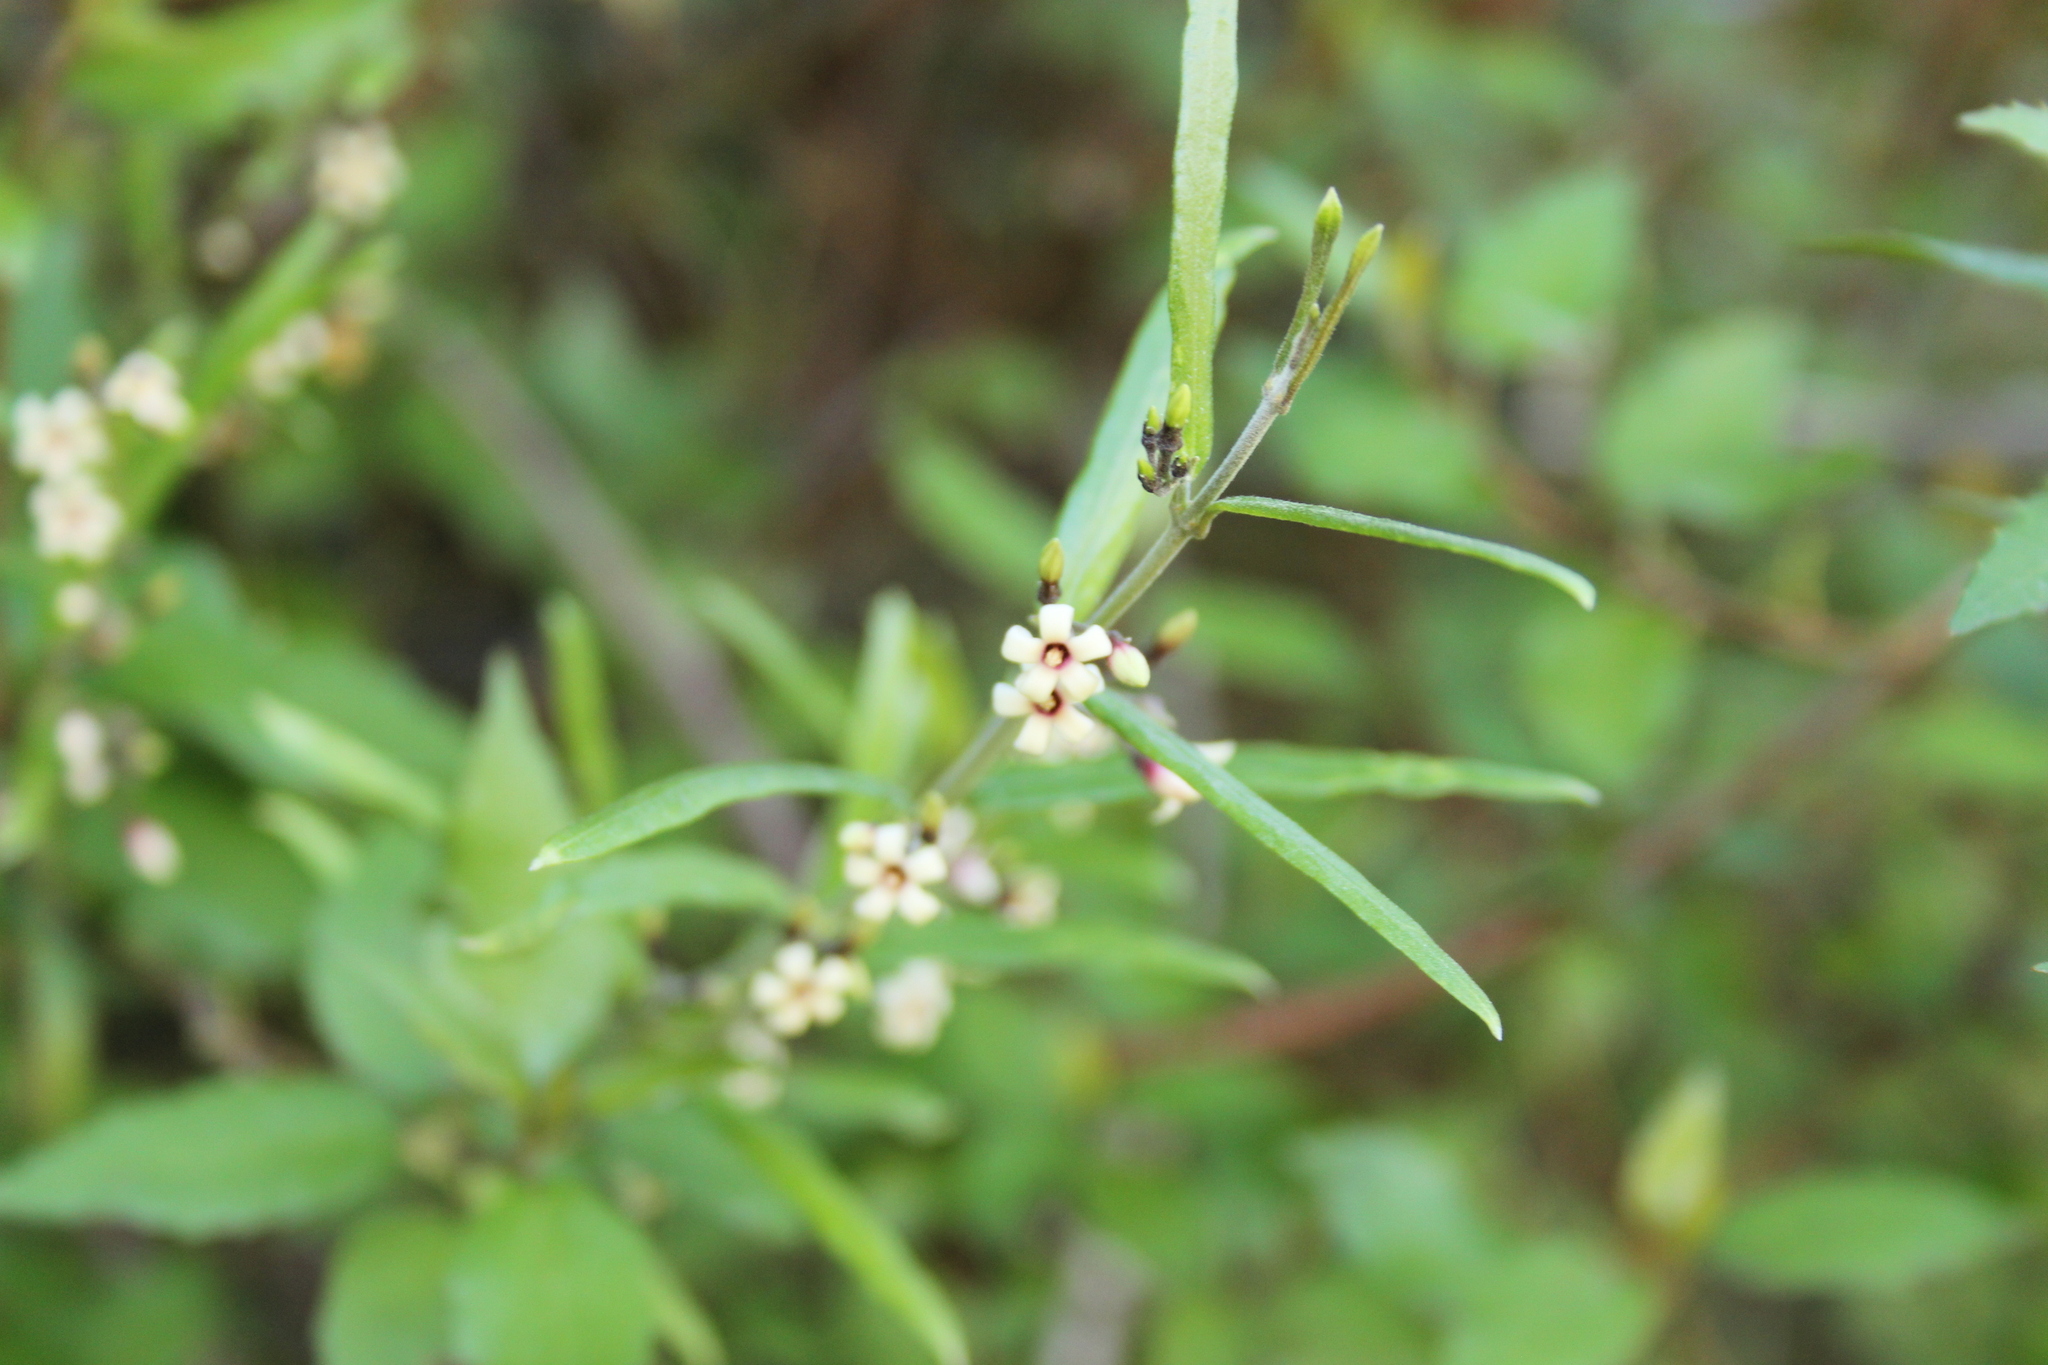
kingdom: Plantae
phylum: Tracheophyta
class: Magnoliopsida
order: Gentianales
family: Apocynaceae
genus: Parsonsia
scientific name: Parsonsia capsularis
